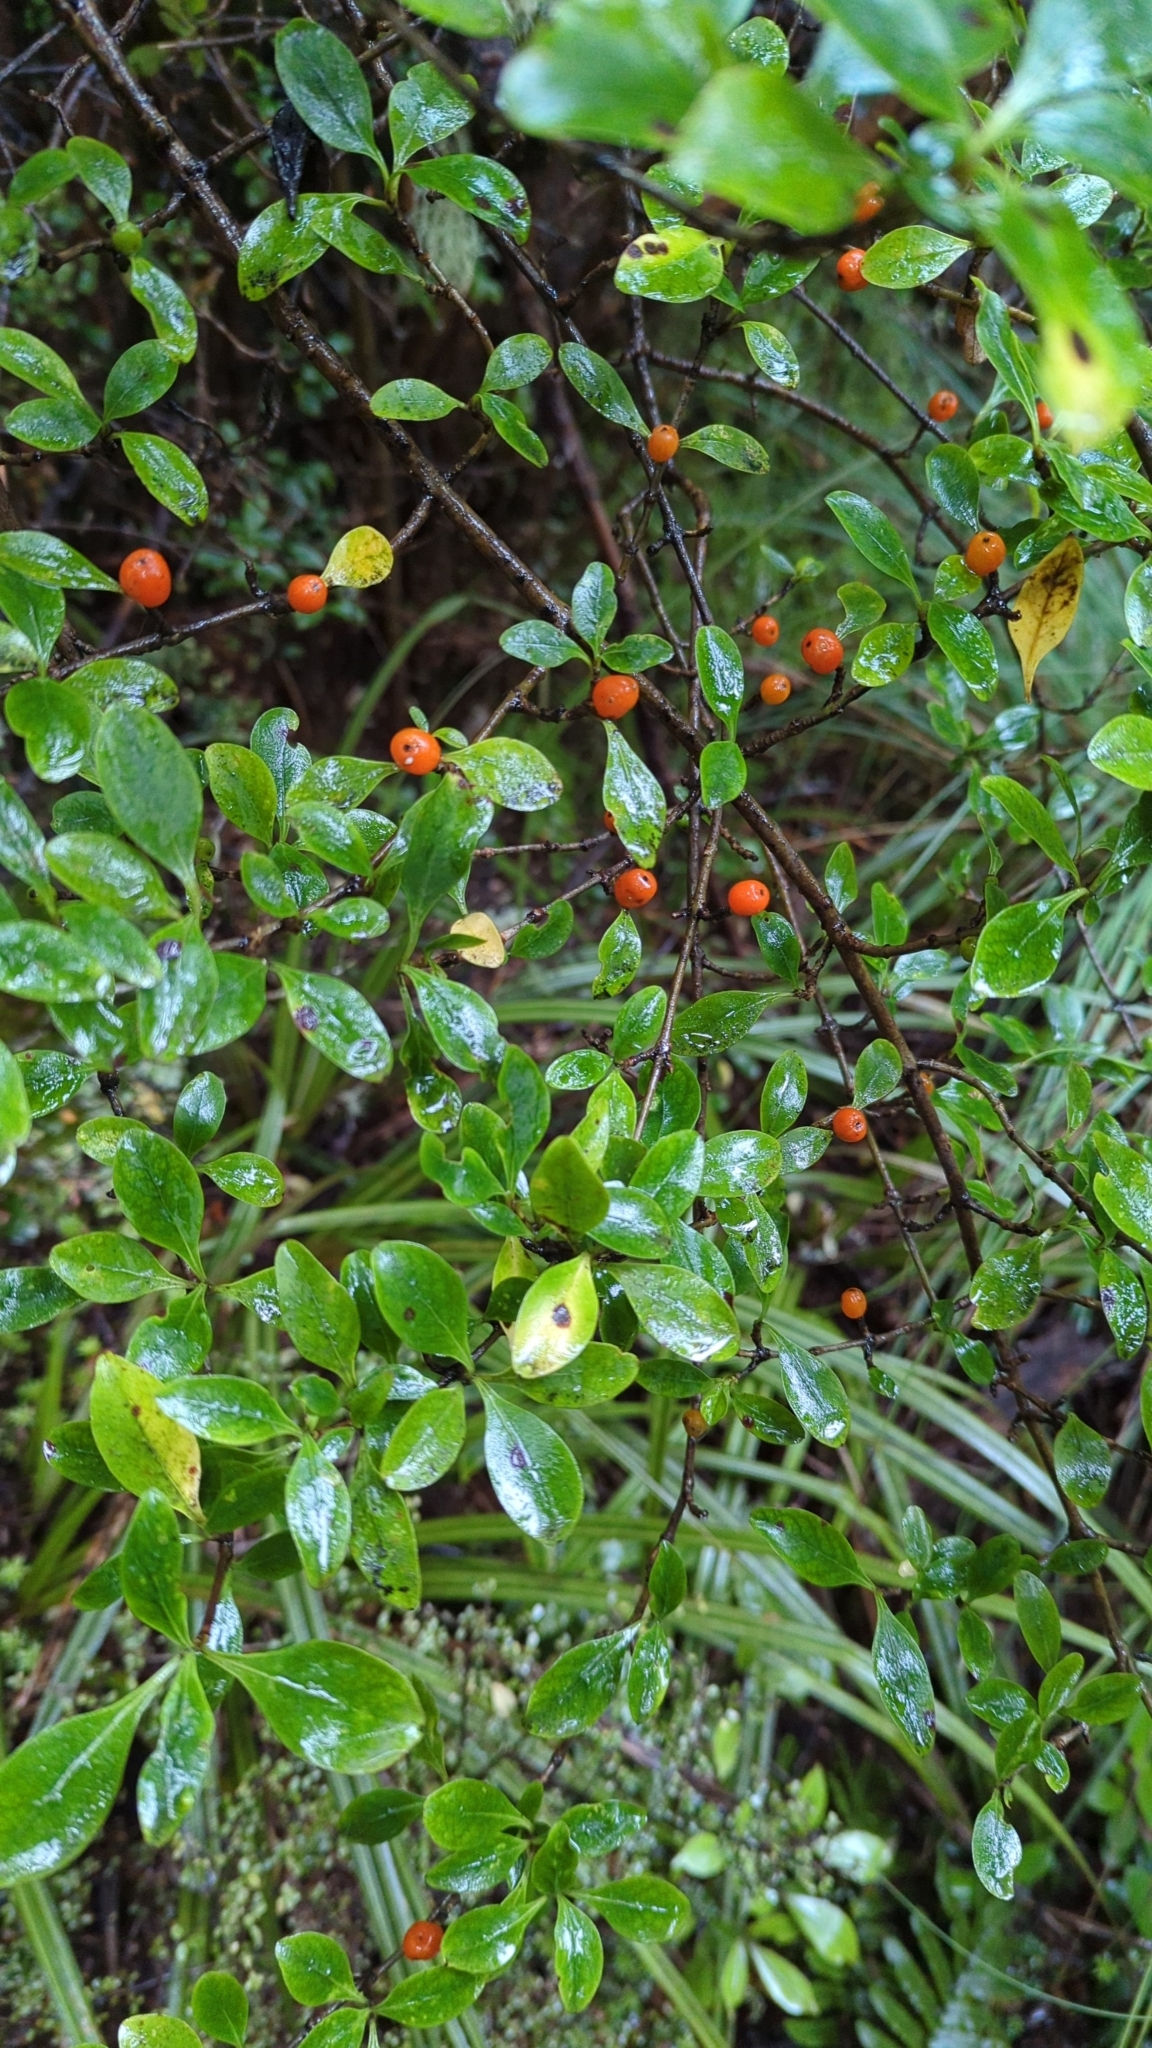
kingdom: Plantae
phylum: Tracheophyta
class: Magnoliopsida
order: Gentianales
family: Rubiaceae
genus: Coprosma
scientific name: Coprosma foetidissima
